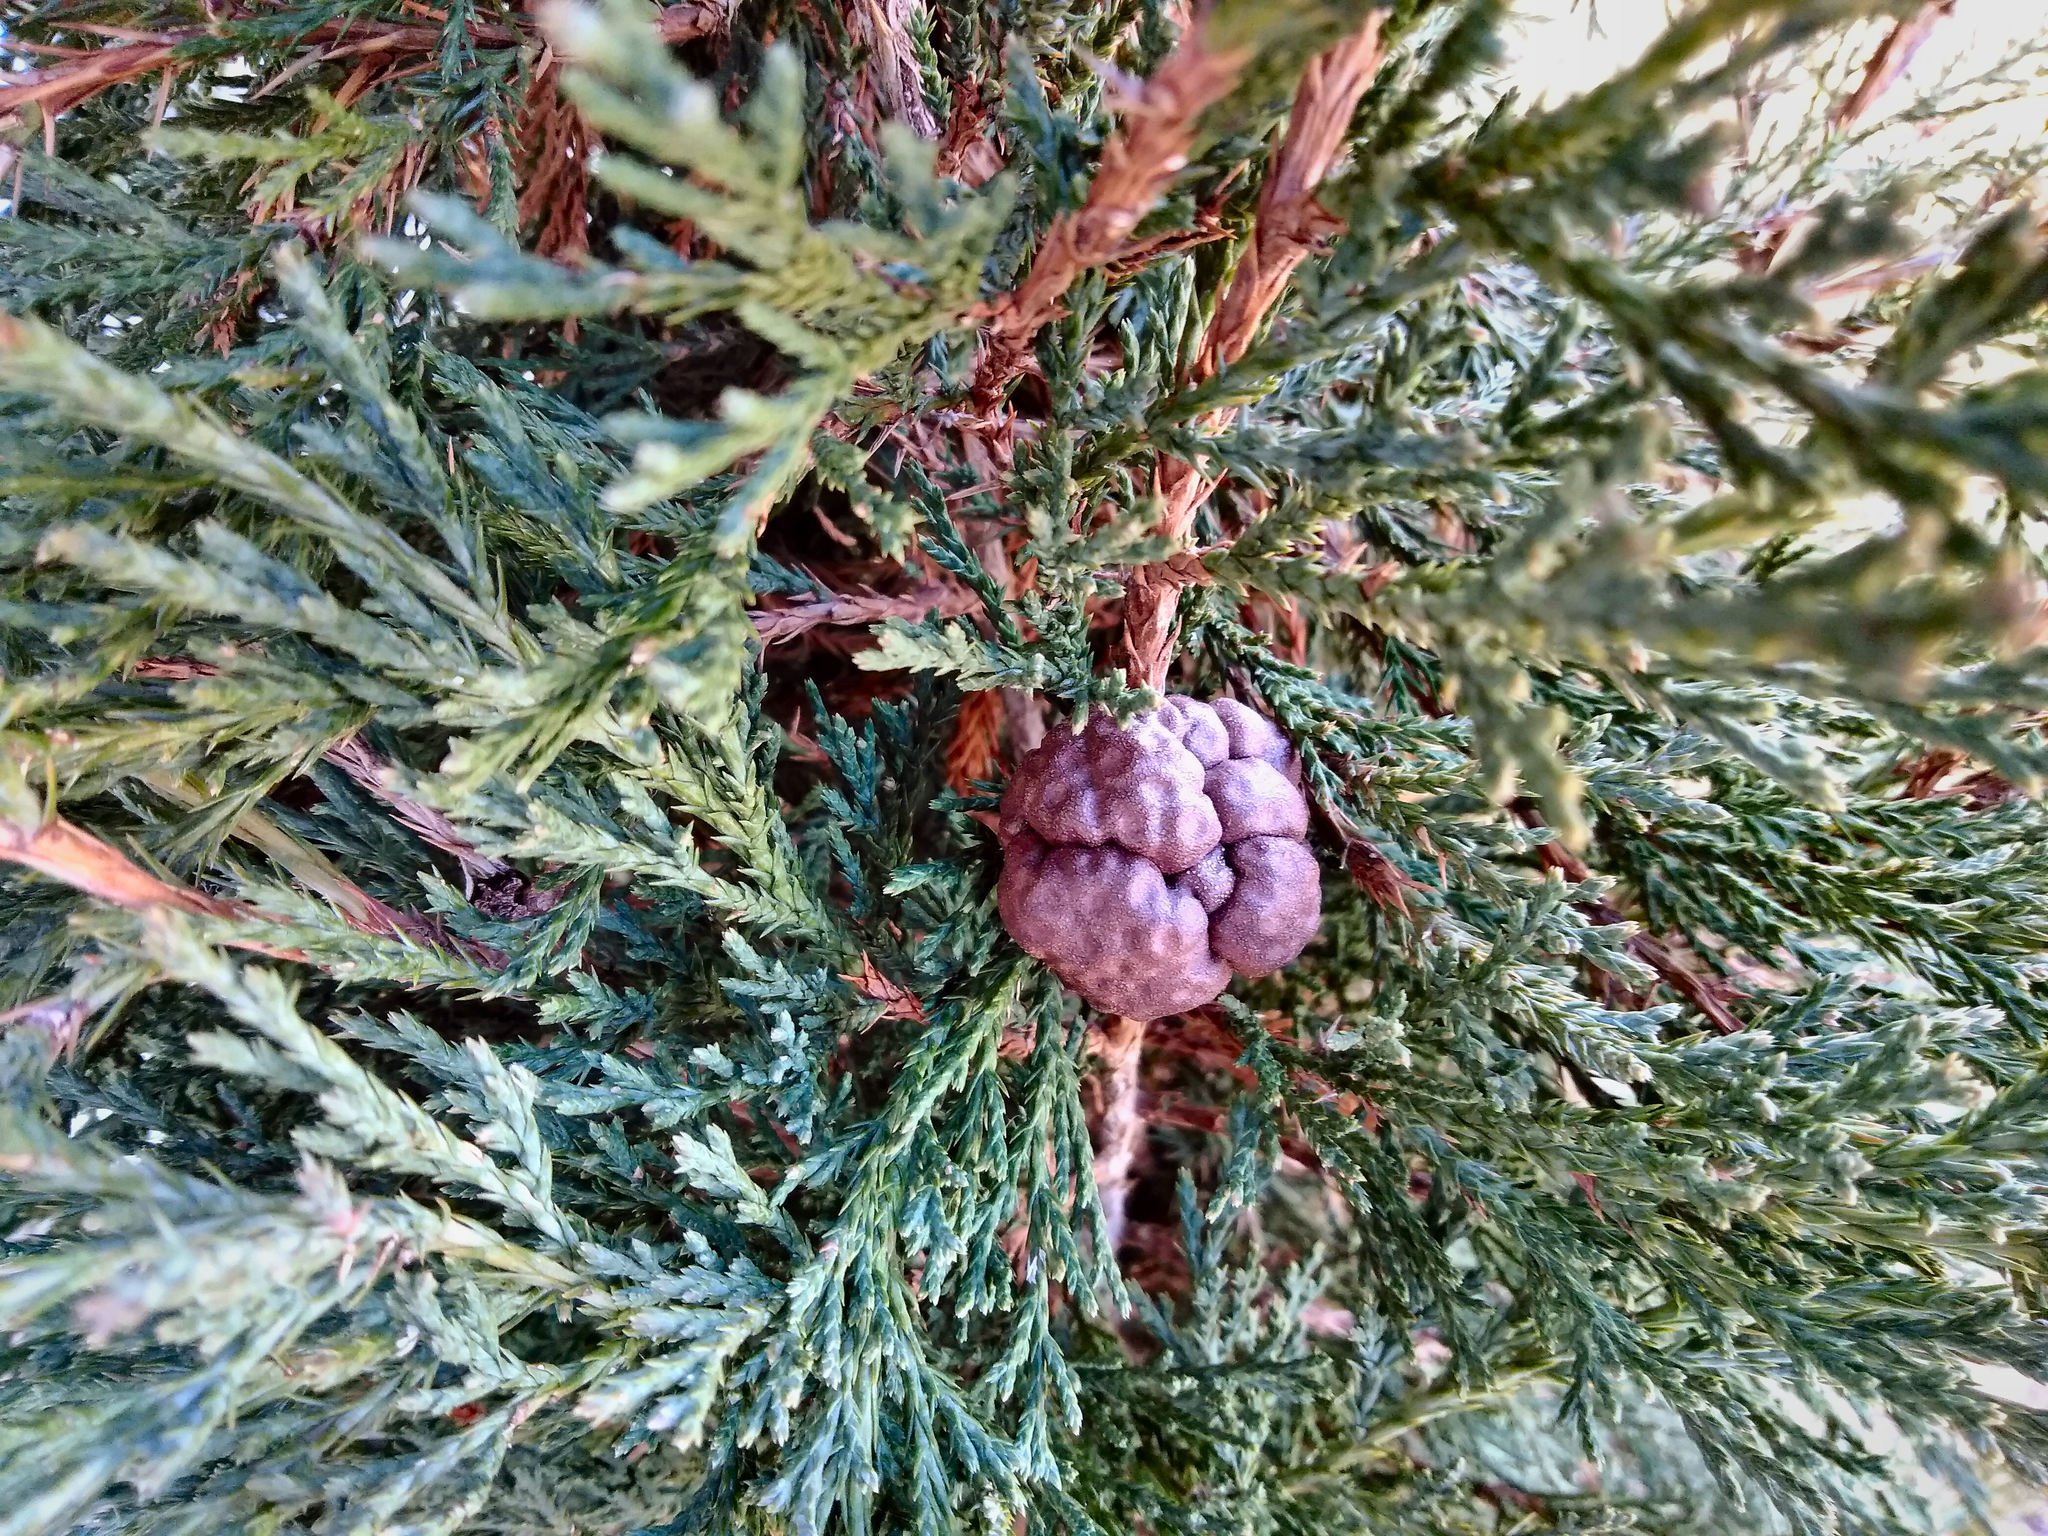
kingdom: Fungi
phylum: Basidiomycota
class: Pucciniomycetes
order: Pucciniales
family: Gymnosporangiaceae
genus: Gymnosporangium
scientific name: Gymnosporangium juniperi-virginianae
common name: Juniper-apple rust
